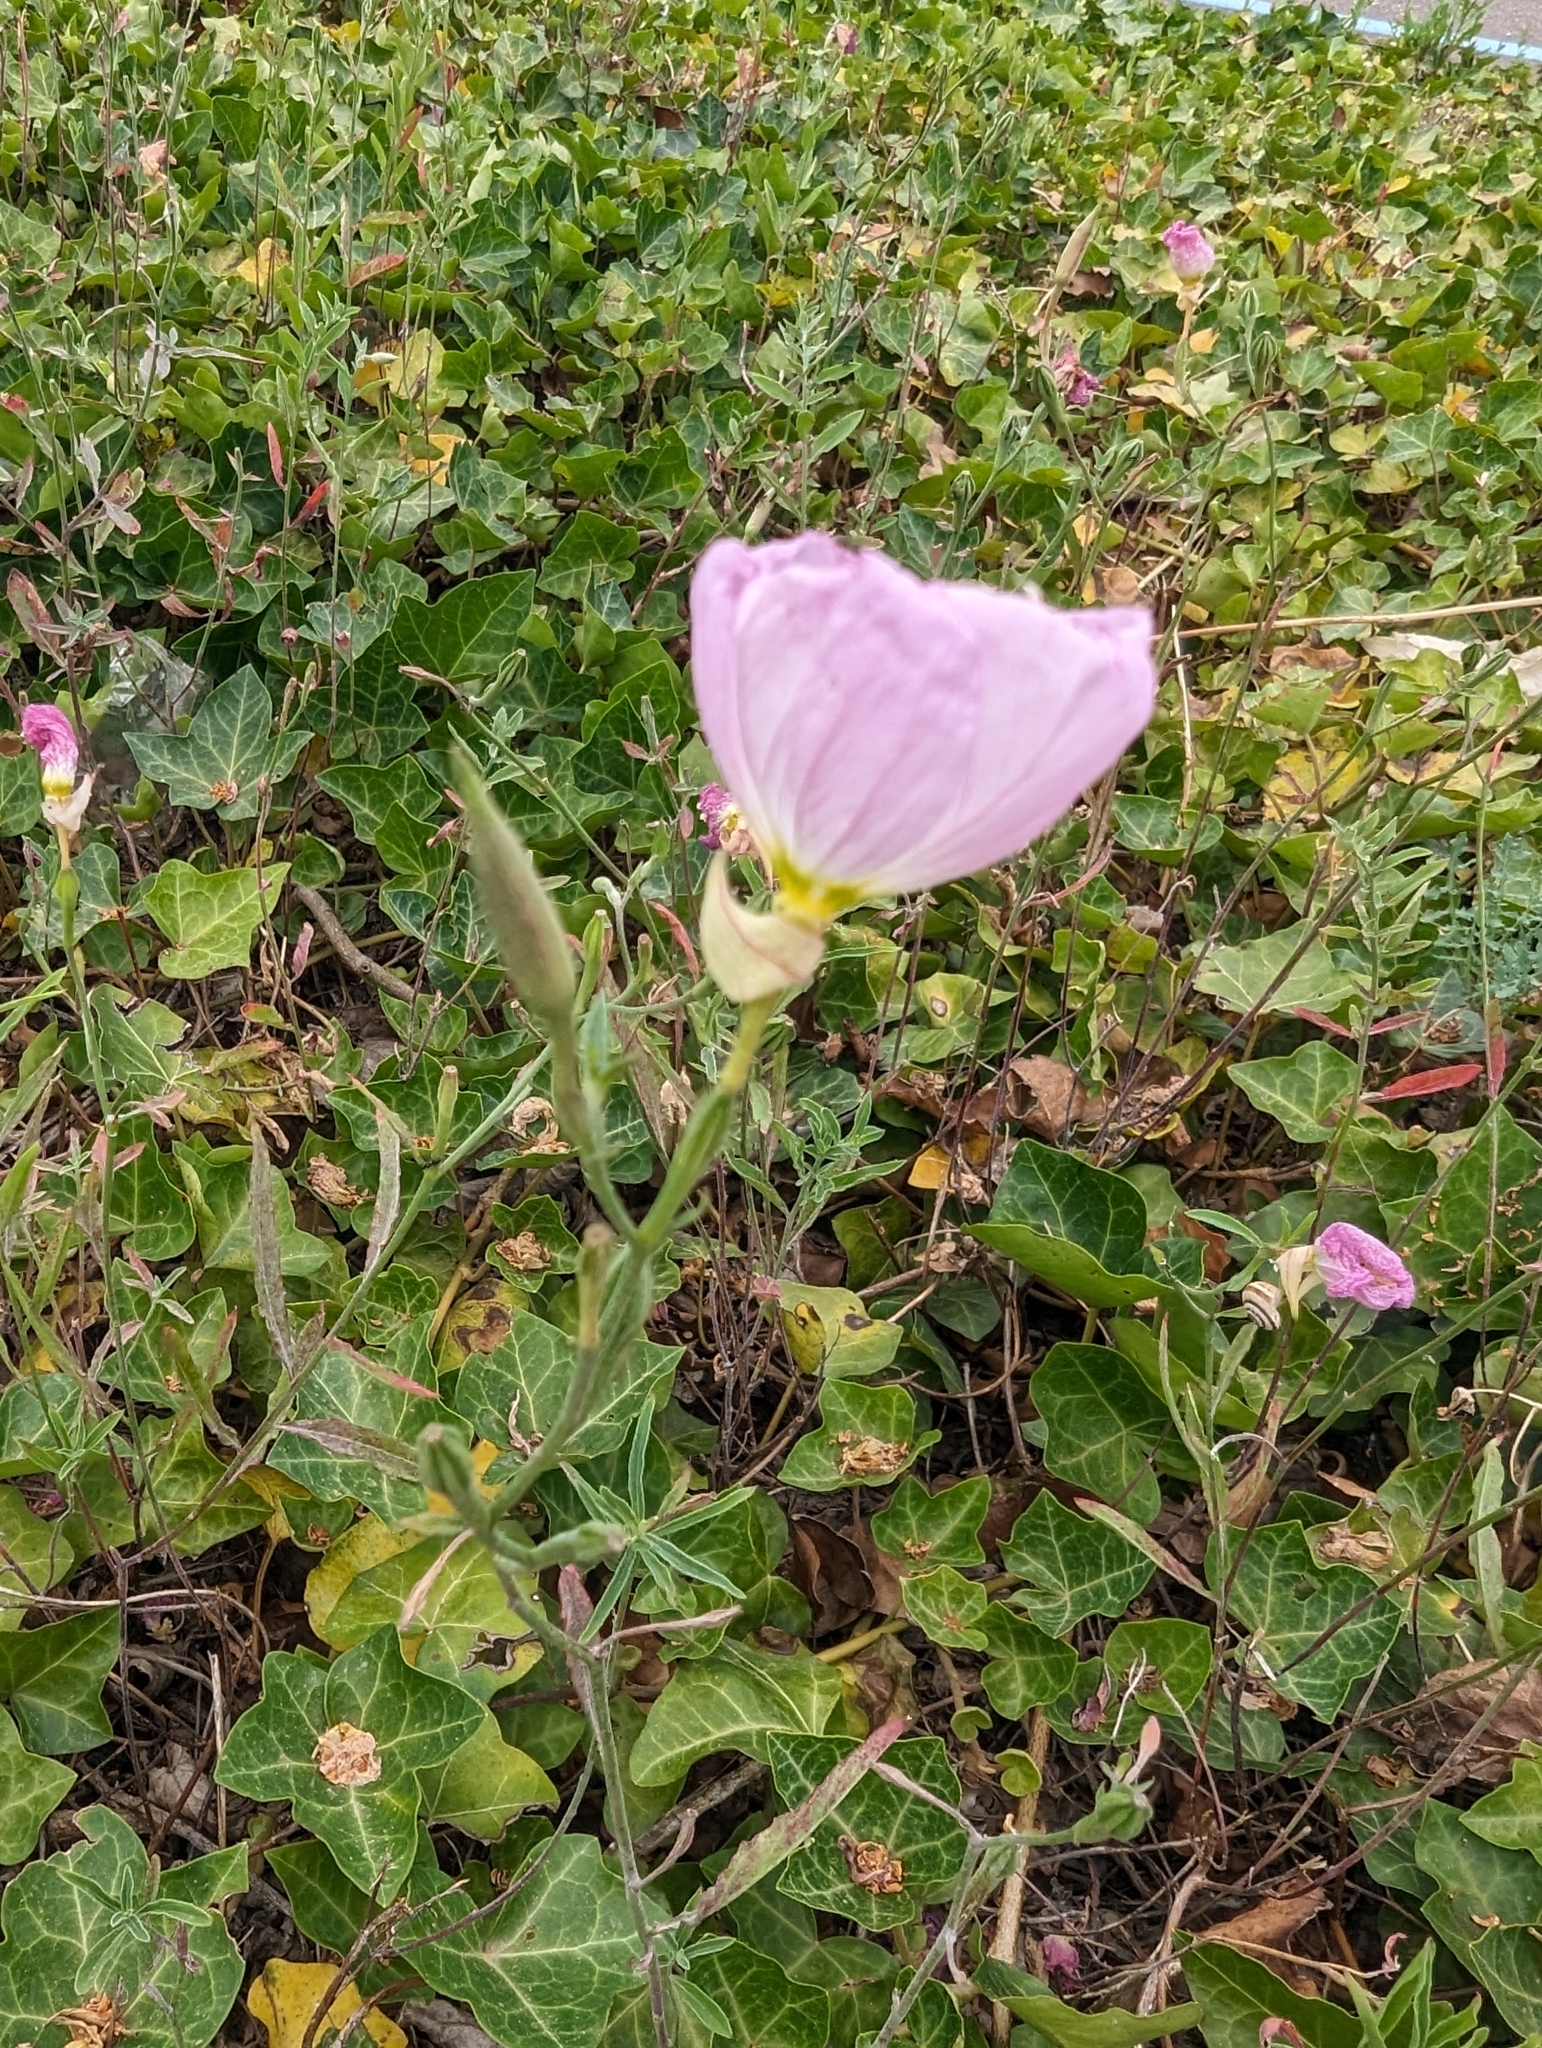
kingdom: Plantae
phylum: Tracheophyta
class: Magnoliopsida
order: Myrtales
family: Onagraceae
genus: Oenothera
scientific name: Oenothera speciosa
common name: White evening-primrose
